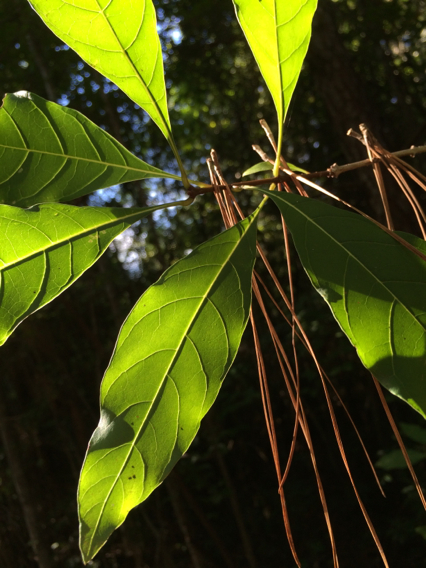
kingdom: Plantae
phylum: Tracheophyta
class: Magnoliopsida
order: Lamiales
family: Oleaceae
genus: Chionanthus
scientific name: Chionanthus virginicus
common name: American fringetree
